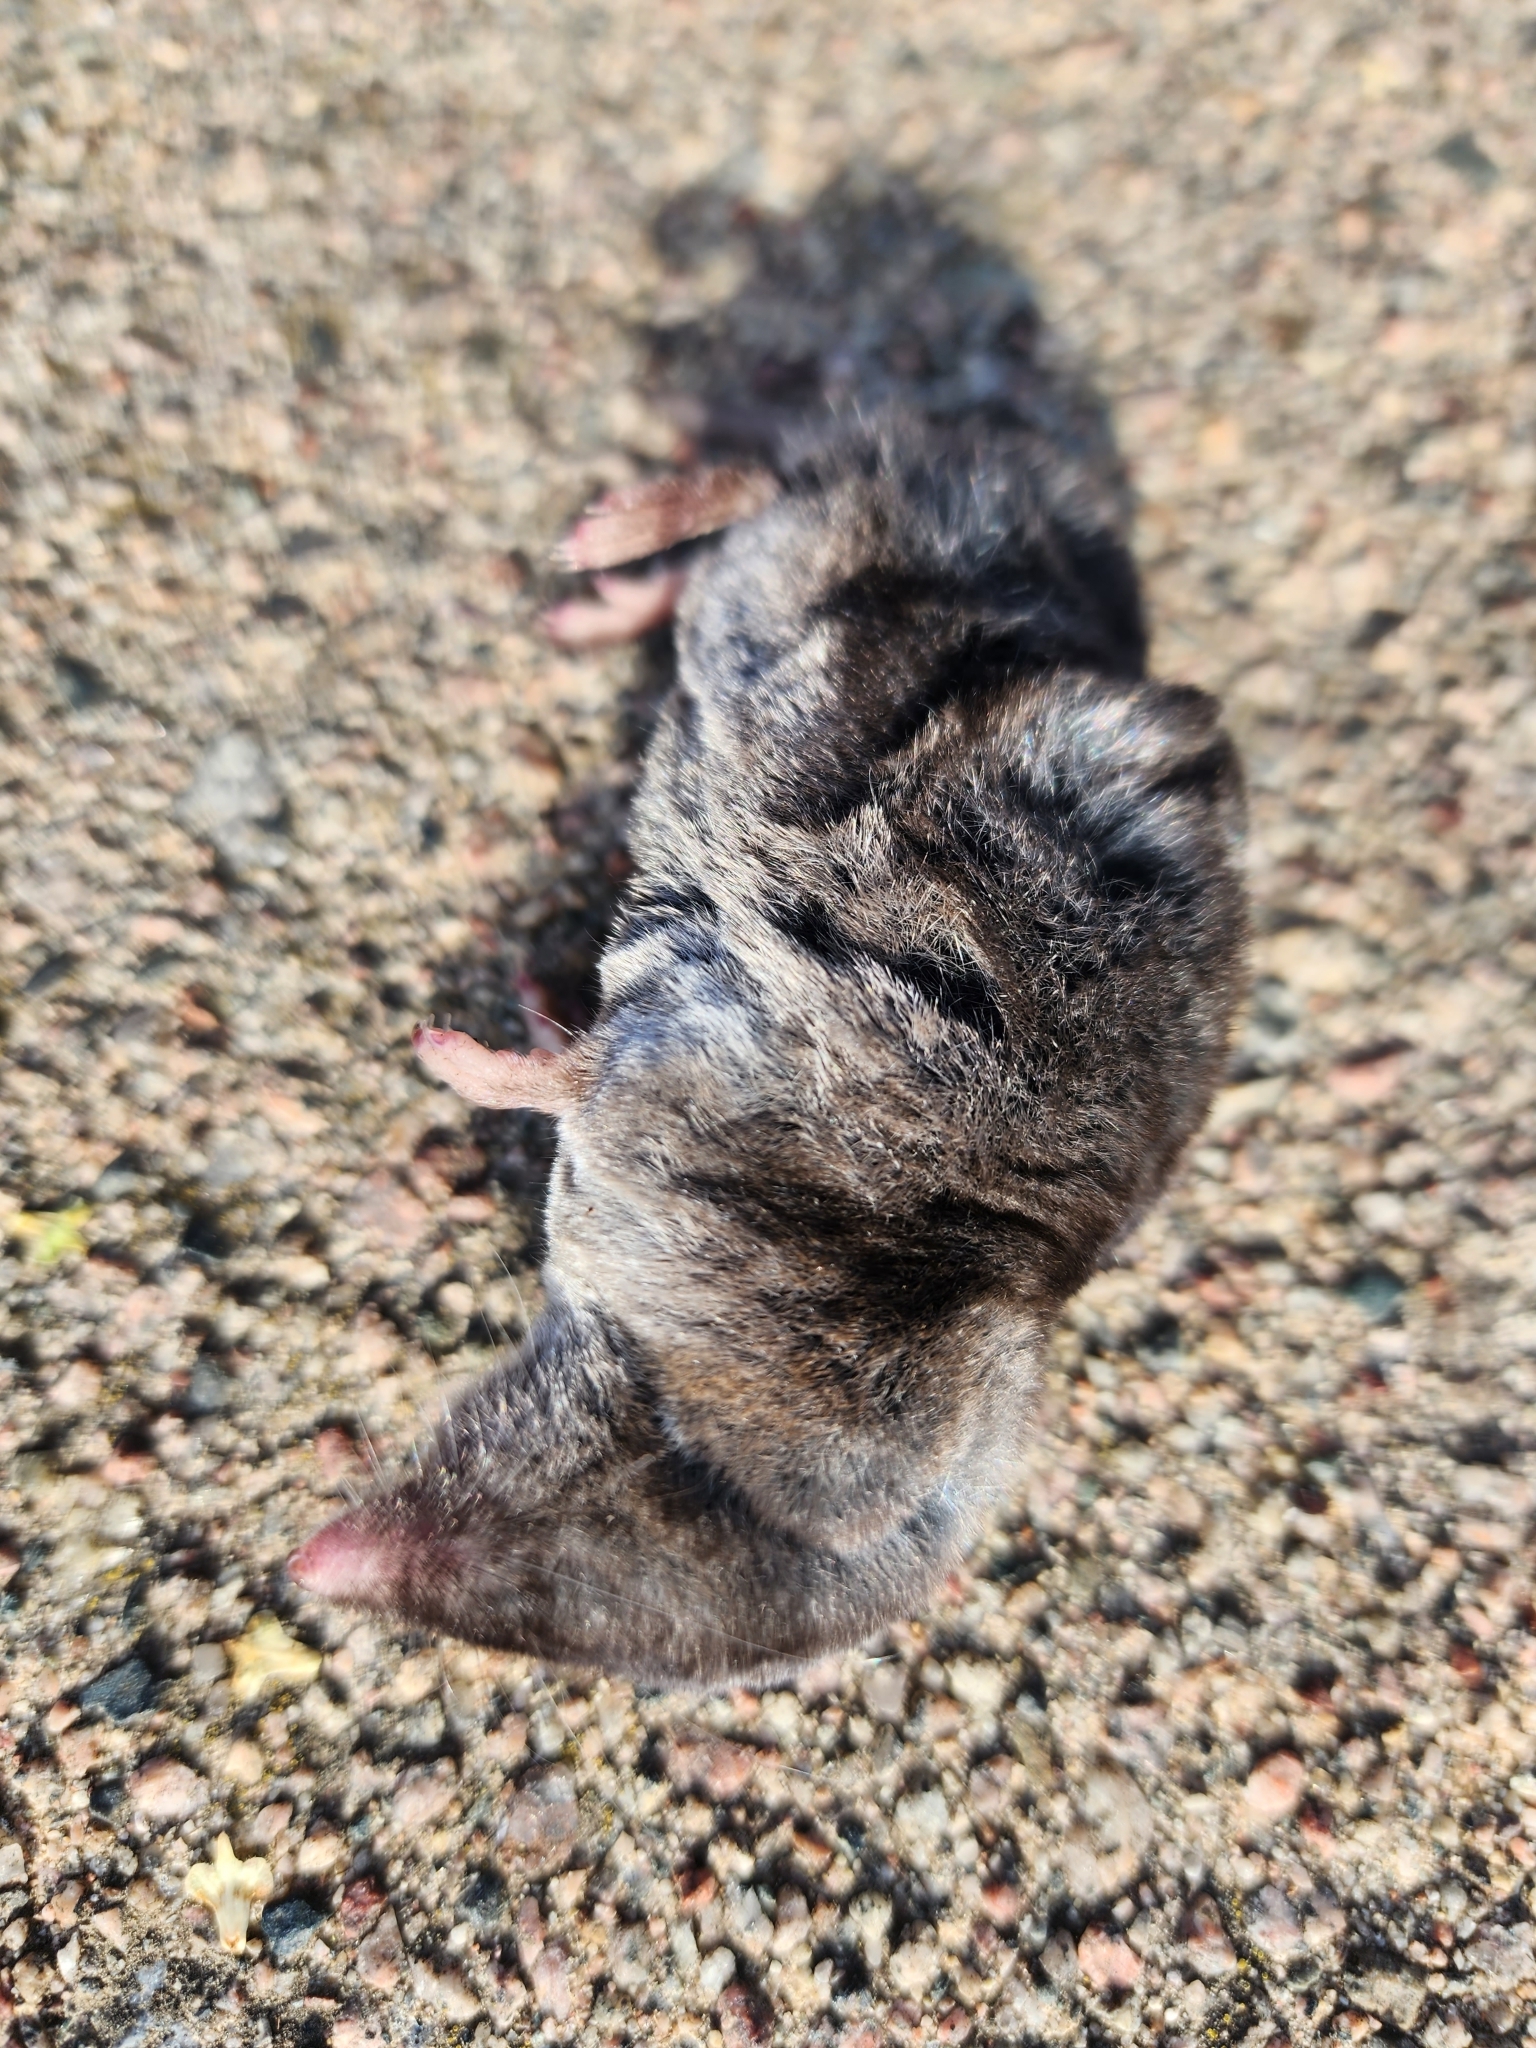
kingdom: Animalia
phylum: Chordata
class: Mammalia
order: Soricomorpha
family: Soricidae
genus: Blarina
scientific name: Blarina brevicauda
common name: Northern short-tailed shrew
